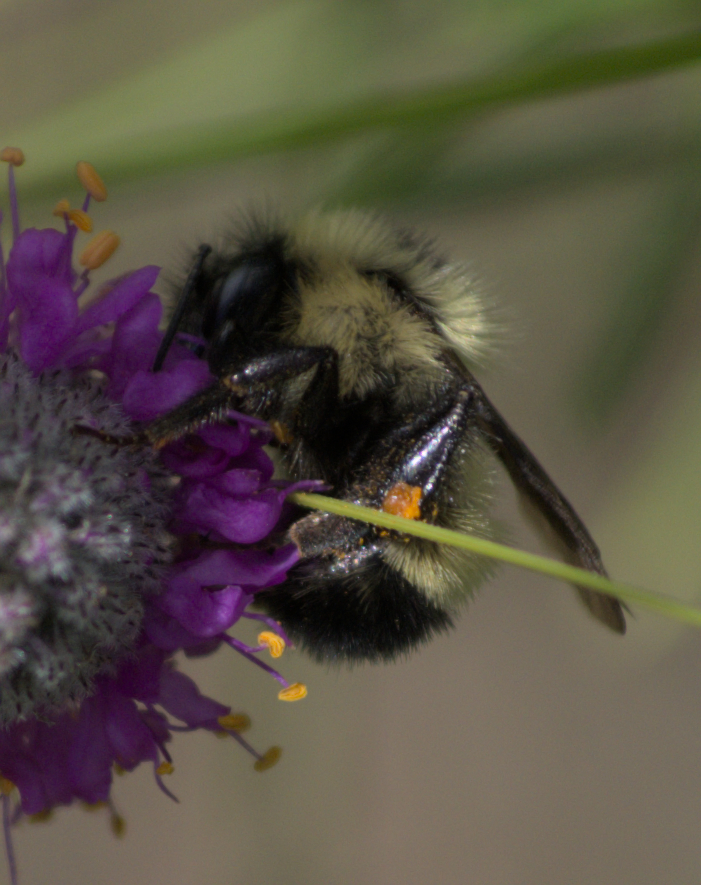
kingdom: Animalia
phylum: Arthropoda
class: Insecta
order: Hymenoptera
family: Apidae
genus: Pyrobombus
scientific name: Pyrobombus
